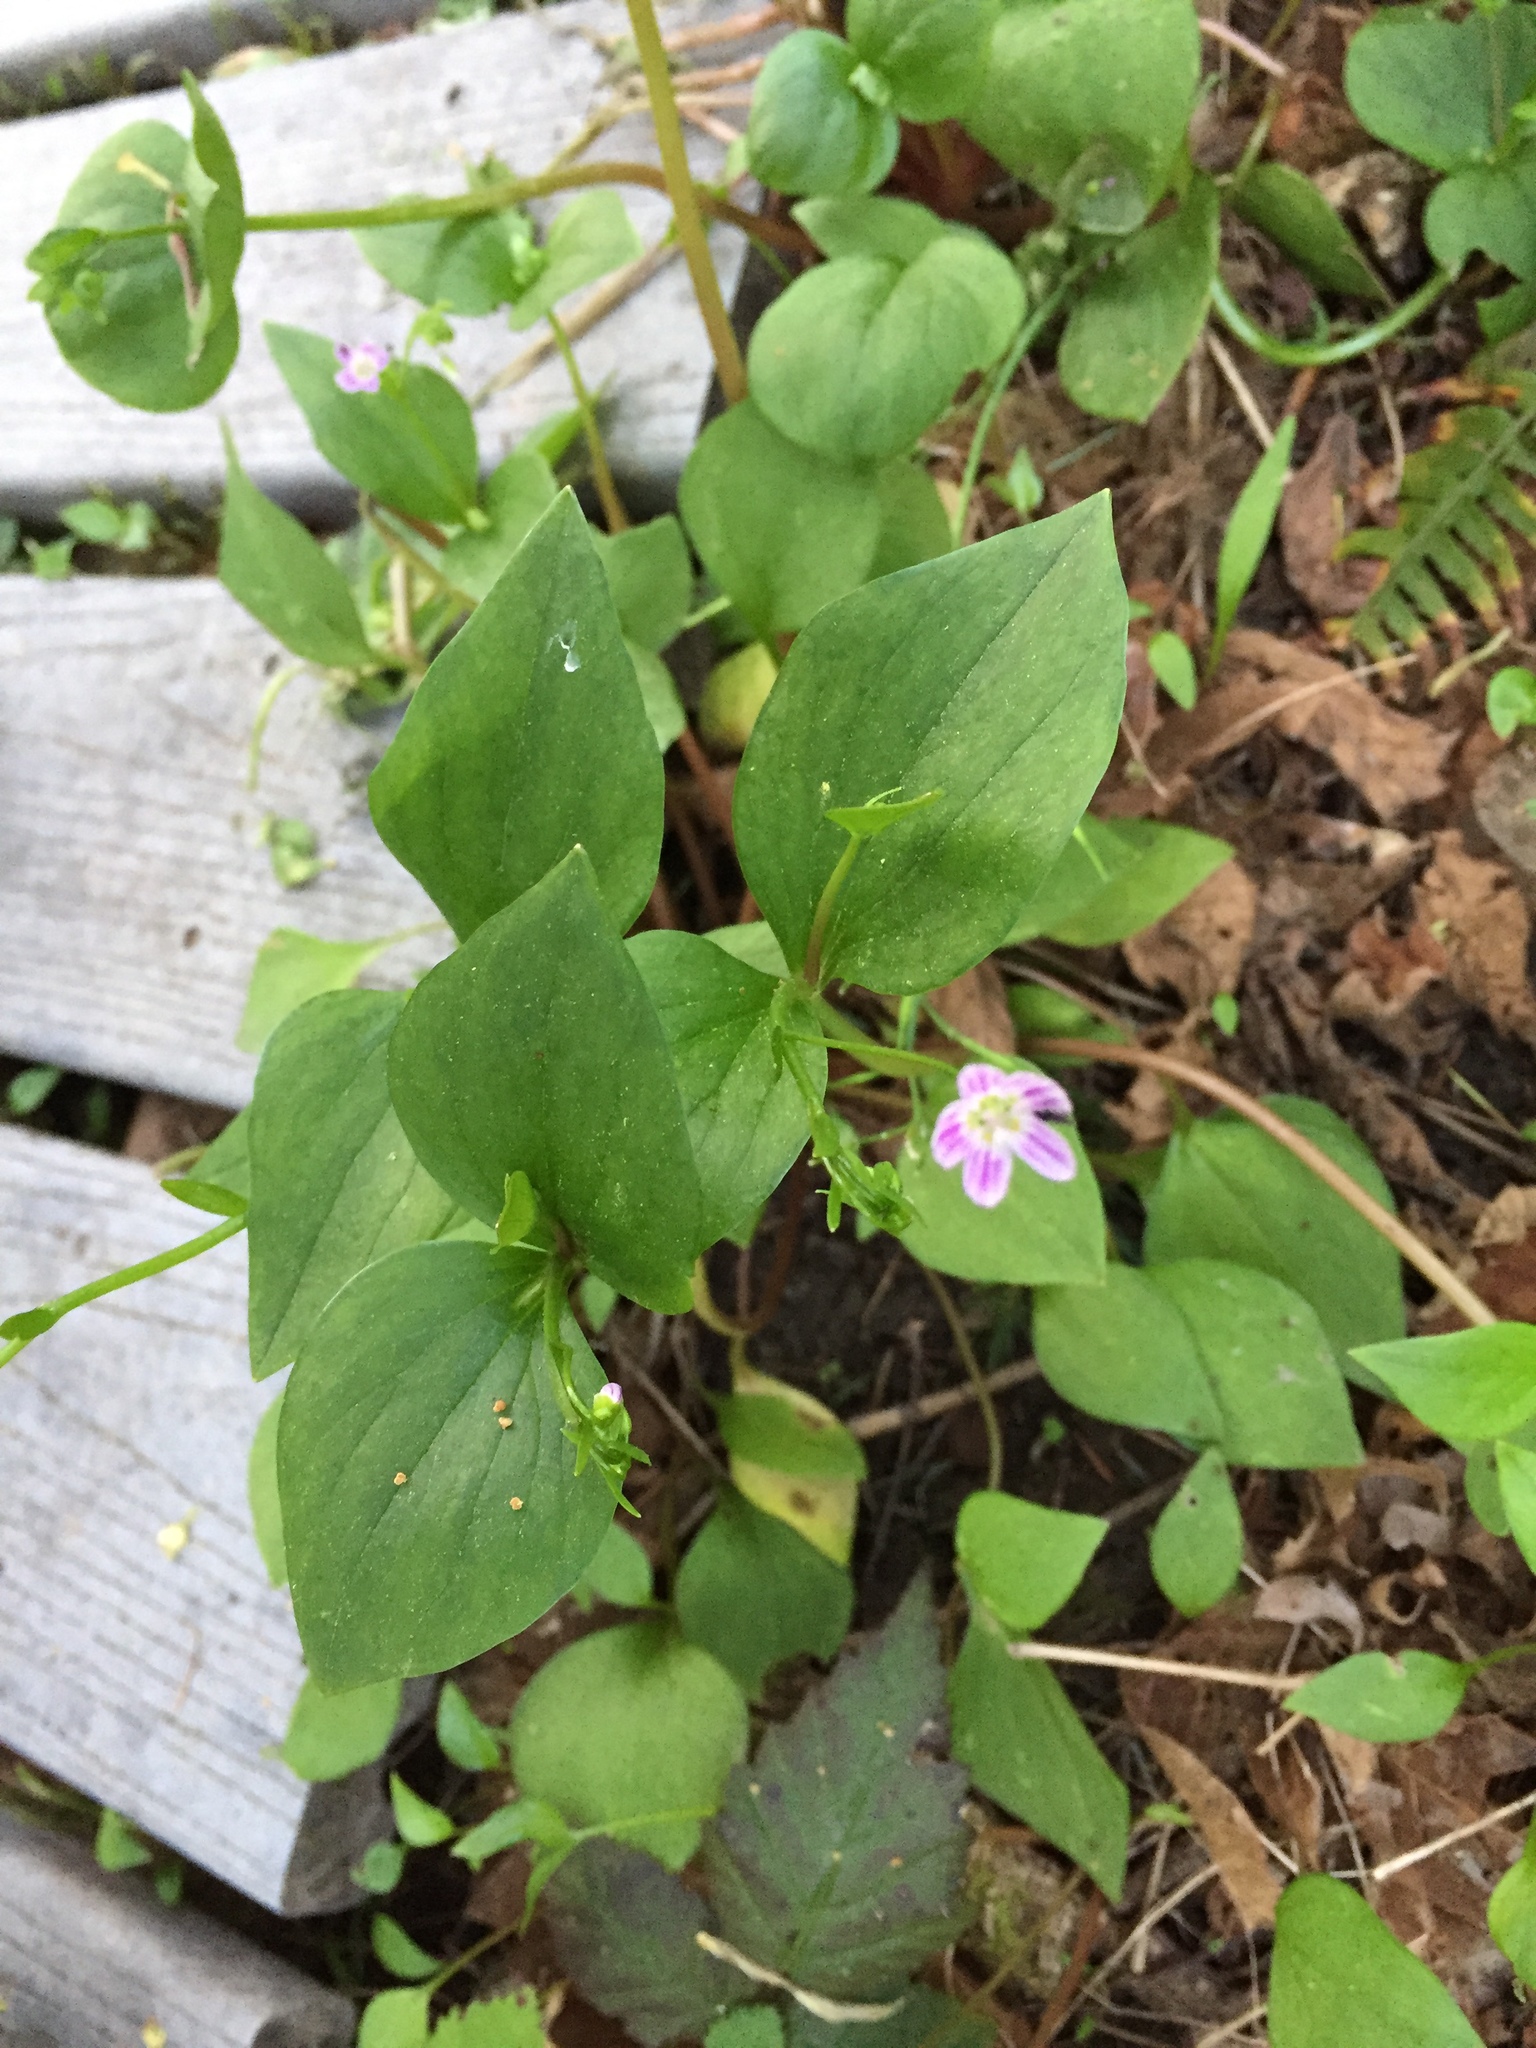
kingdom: Plantae
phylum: Tracheophyta
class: Magnoliopsida
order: Caryophyllales
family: Montiaceae
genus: Claytonia
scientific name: Claytonia sibirica
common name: Pink purslane
